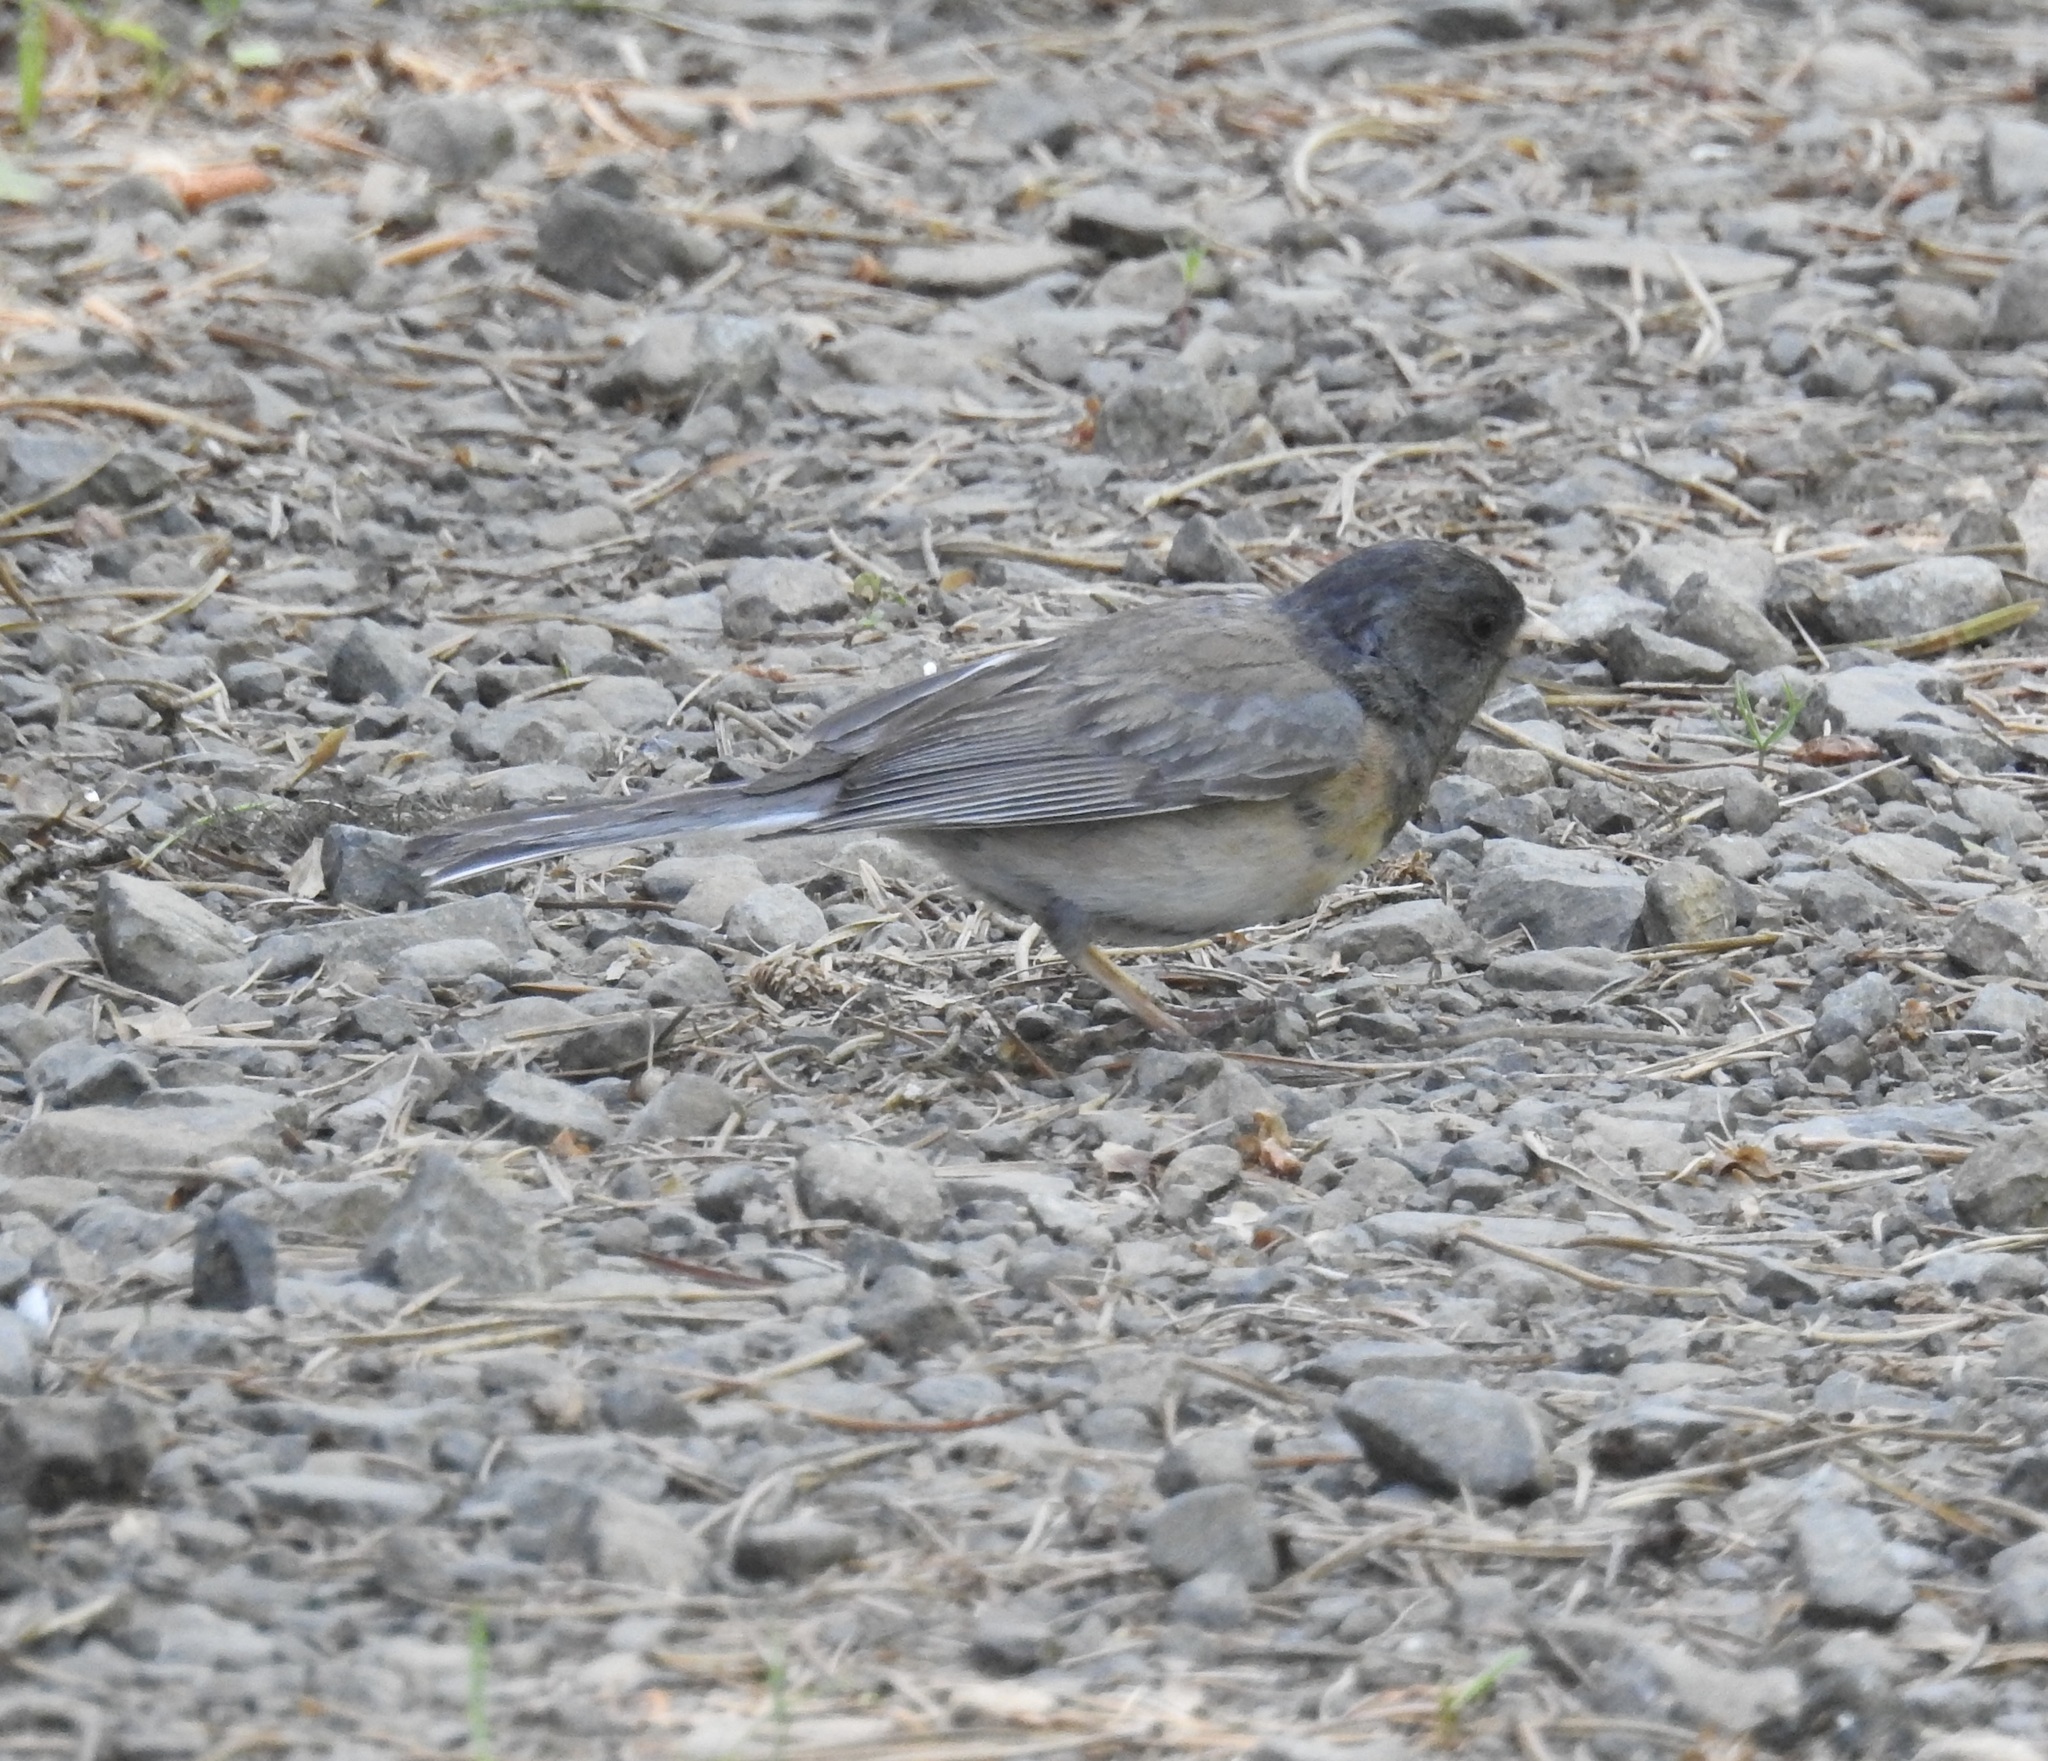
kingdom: Animalia
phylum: Chordata
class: Aves
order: Passeriformes
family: Passerellidae
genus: Junco
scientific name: Junco hyemalis
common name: Dark-eyed junco
